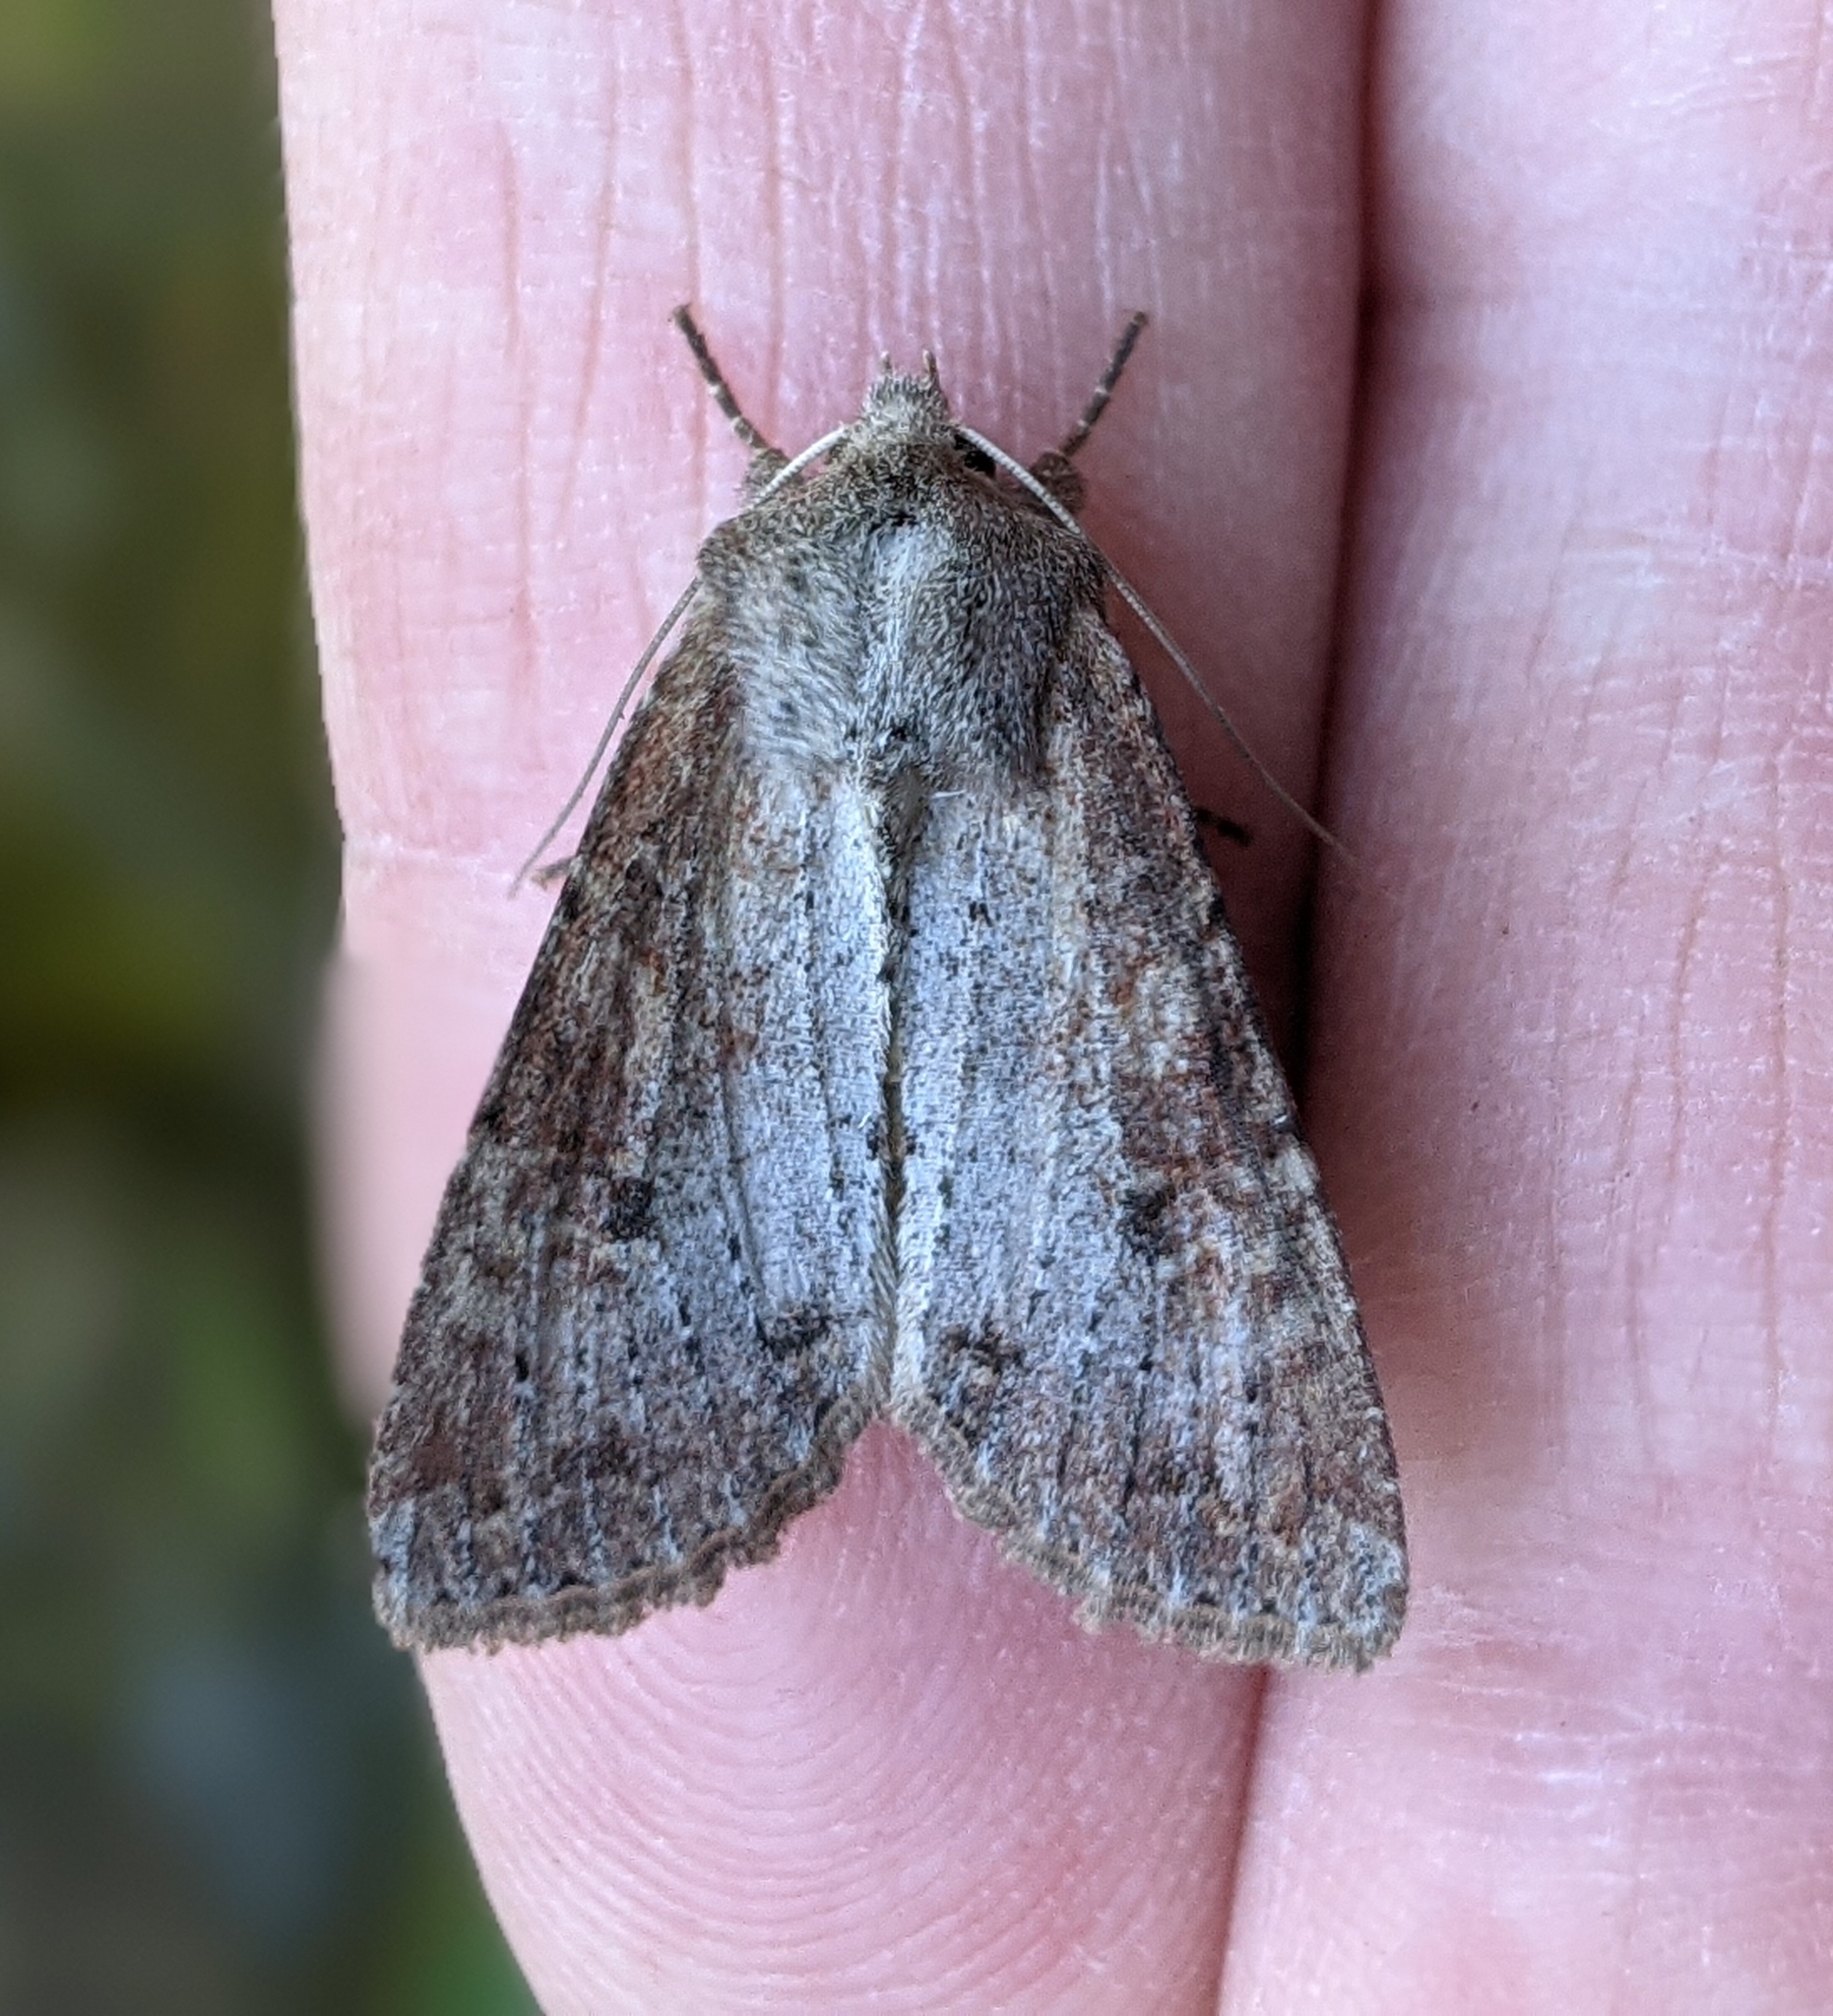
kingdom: Animalia
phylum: Arthropoda
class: Insecta
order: Lepidoptera
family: Noctuidae
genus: Apamea
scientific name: Apamea alia
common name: Fox apamea
